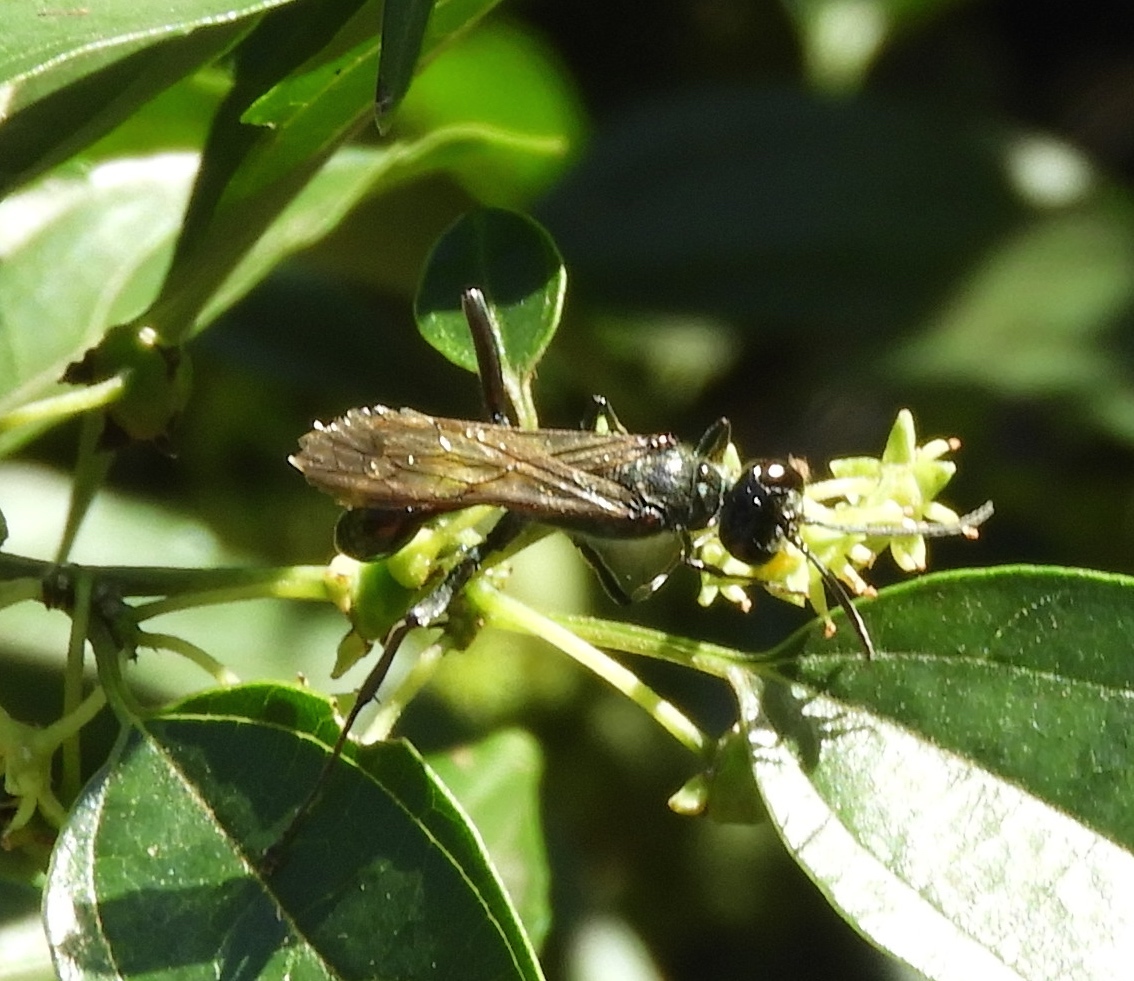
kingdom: Animalia
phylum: Arthropoda
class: Insecta
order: Hymenoptera
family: Sphecidae
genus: Chalybion
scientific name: Chalybion zimmermanni
